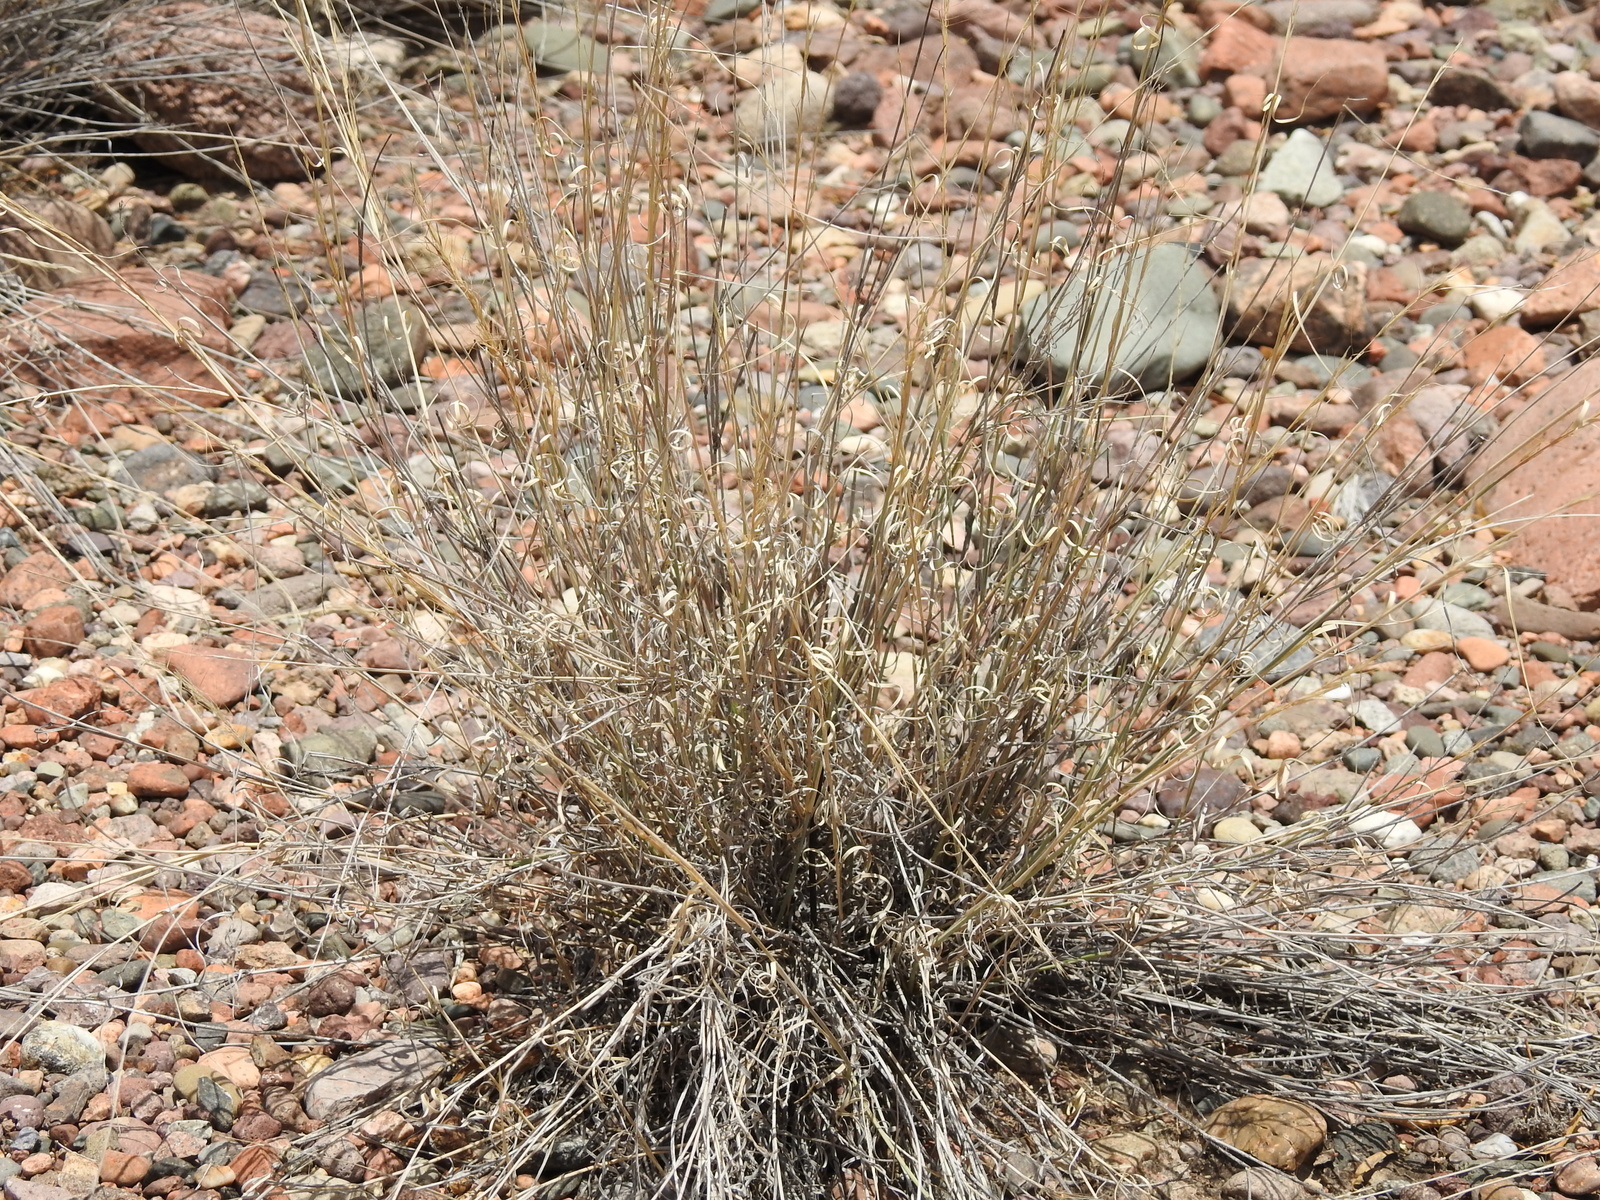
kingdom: Plantae
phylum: Tracheophyta
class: Liliopsida
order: Poales
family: Poaceae
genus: Aristida
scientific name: Aristida mendocina
